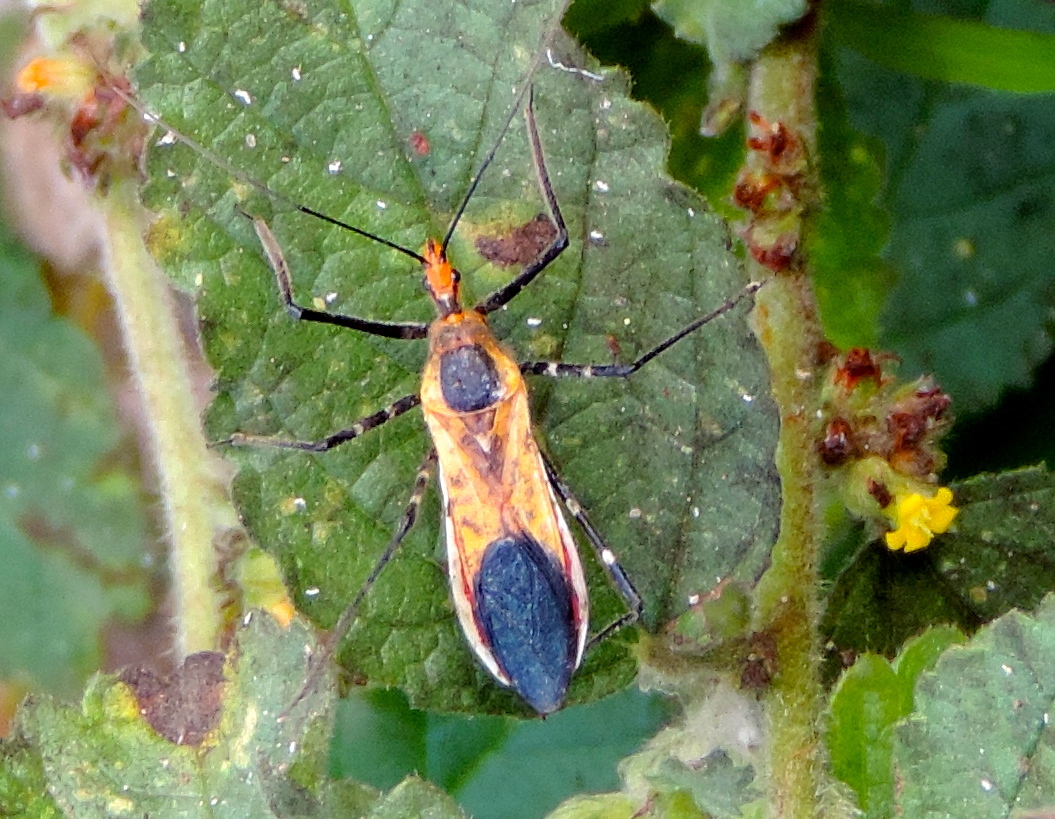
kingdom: Animalia
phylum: Arthropoda
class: Insecta
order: Hemiptera
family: Reduviidae
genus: Zelus
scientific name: Zelus longipes
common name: Milkweed assassin bug
